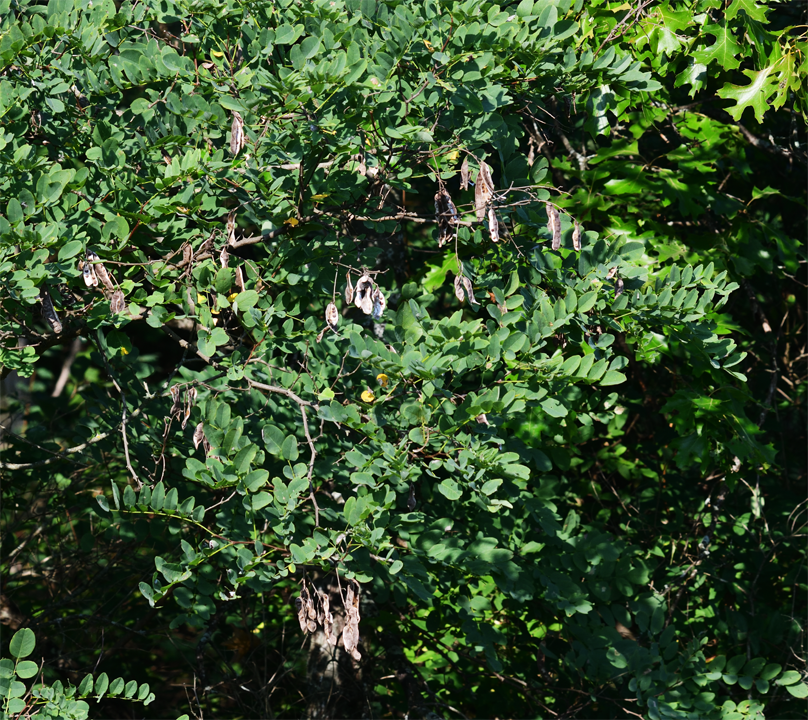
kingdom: Plantae
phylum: Tracheophyta
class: Magnoliopsida
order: Fabales
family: Fabaceae
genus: Robinia
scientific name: Robinia pseudoacacia
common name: Black locust
